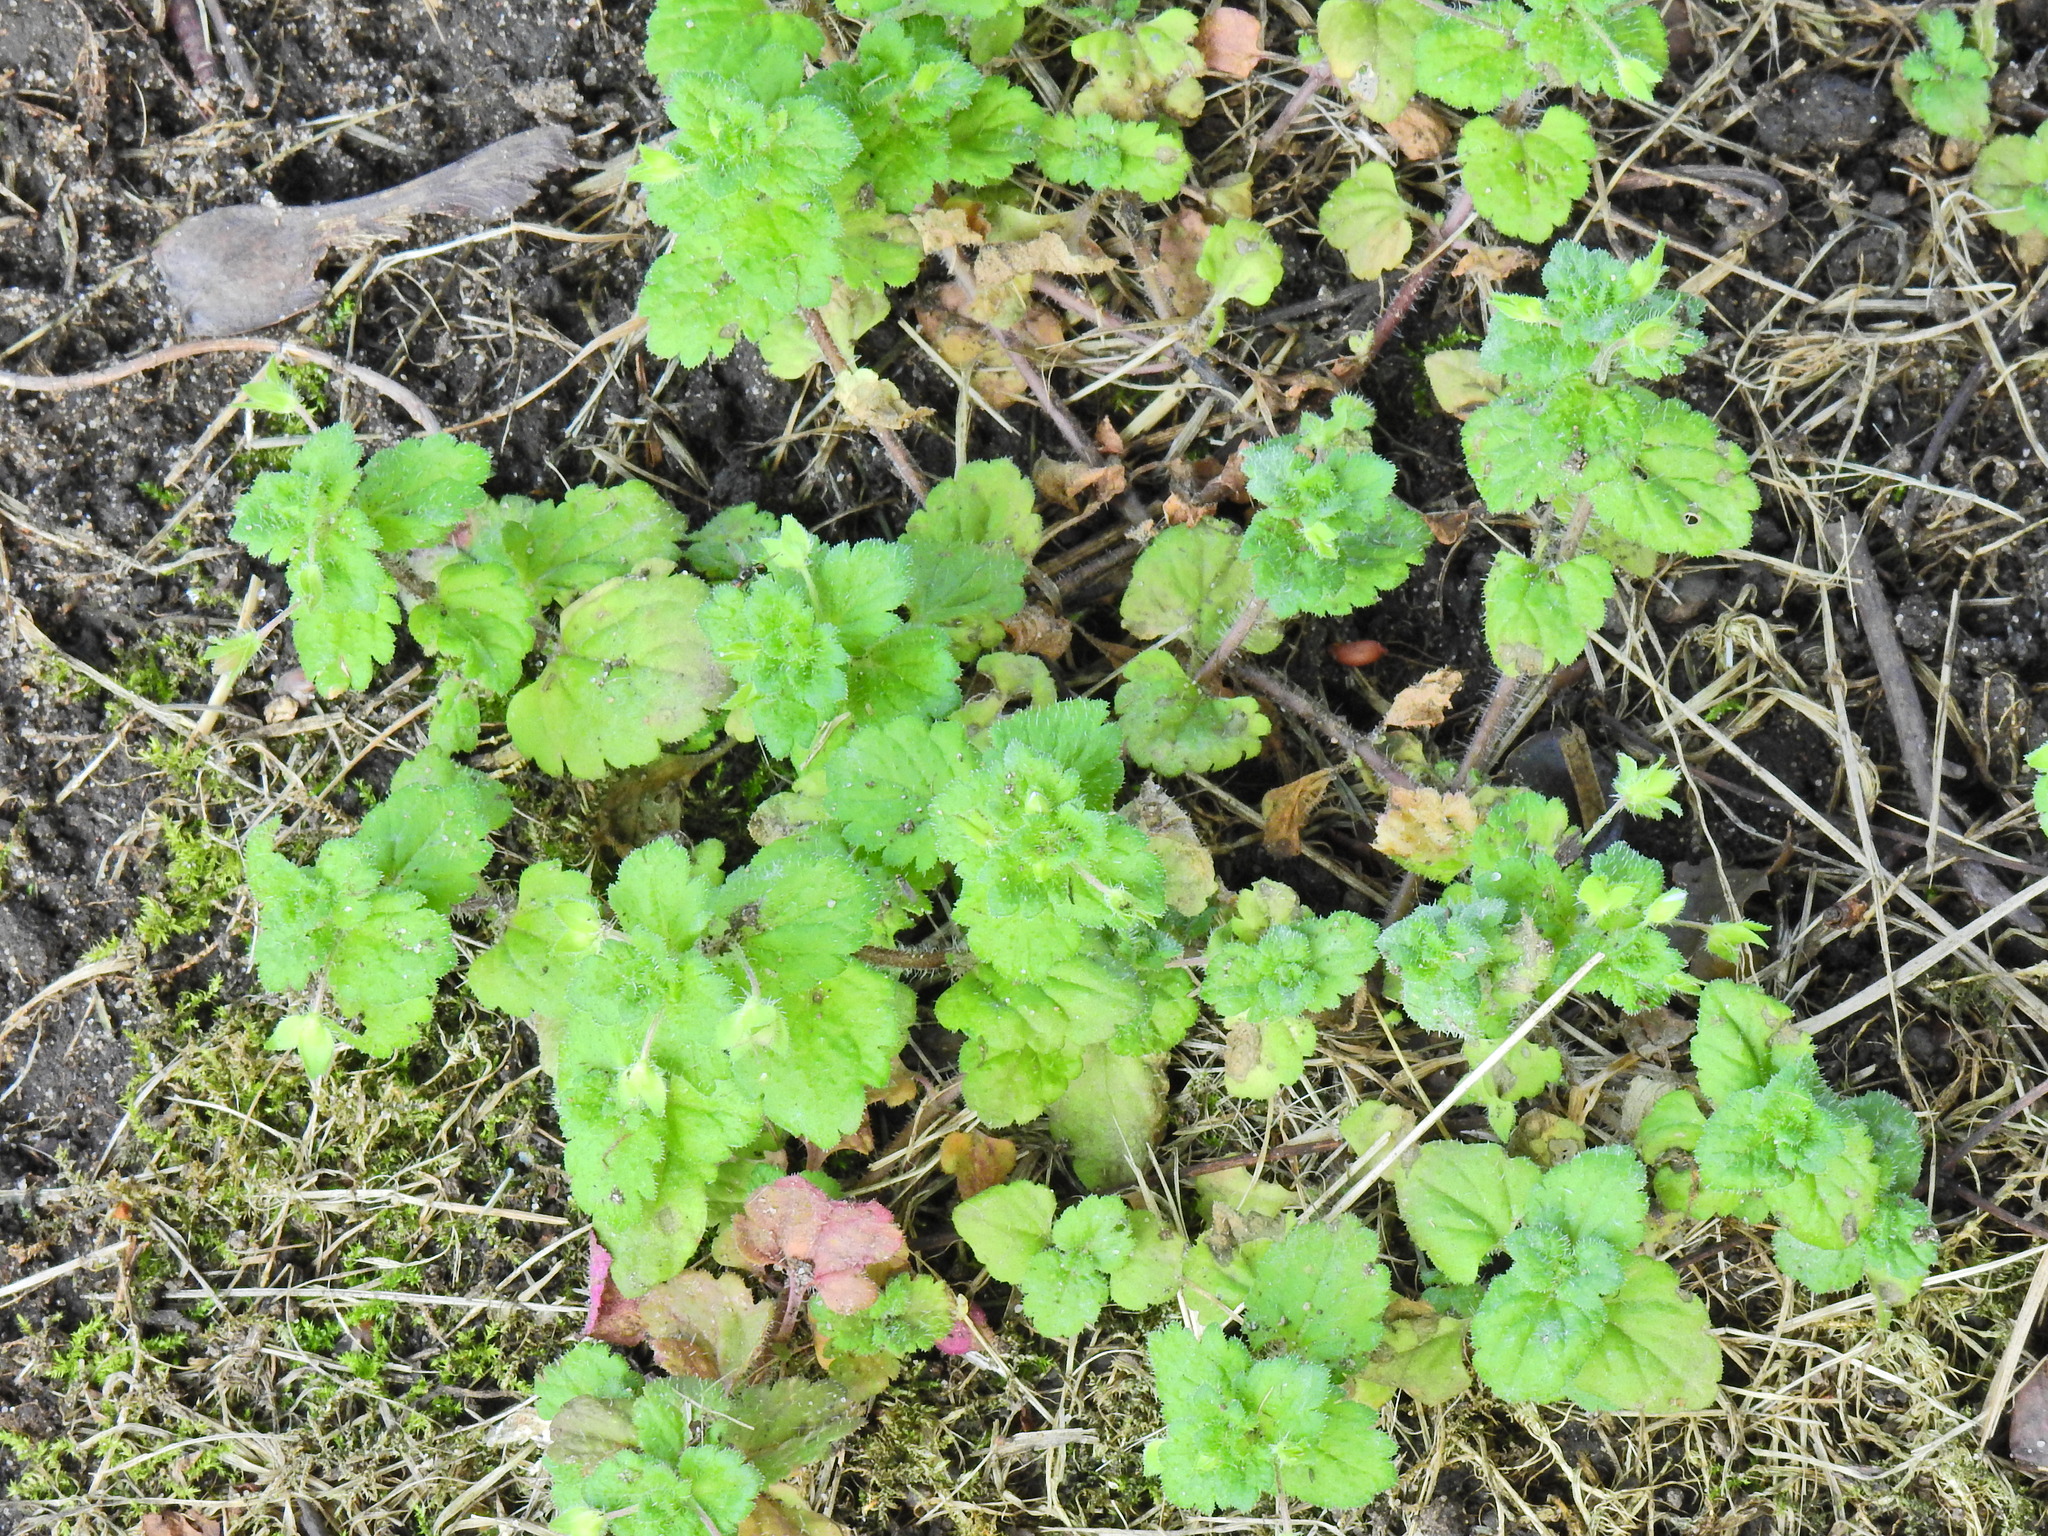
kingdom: Plantae
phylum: Tracheophyta
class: Magnoliopsida
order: Lamiales
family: Plantaginaceae
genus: Veronica
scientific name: Veronica persica
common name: Common field-speedwell
